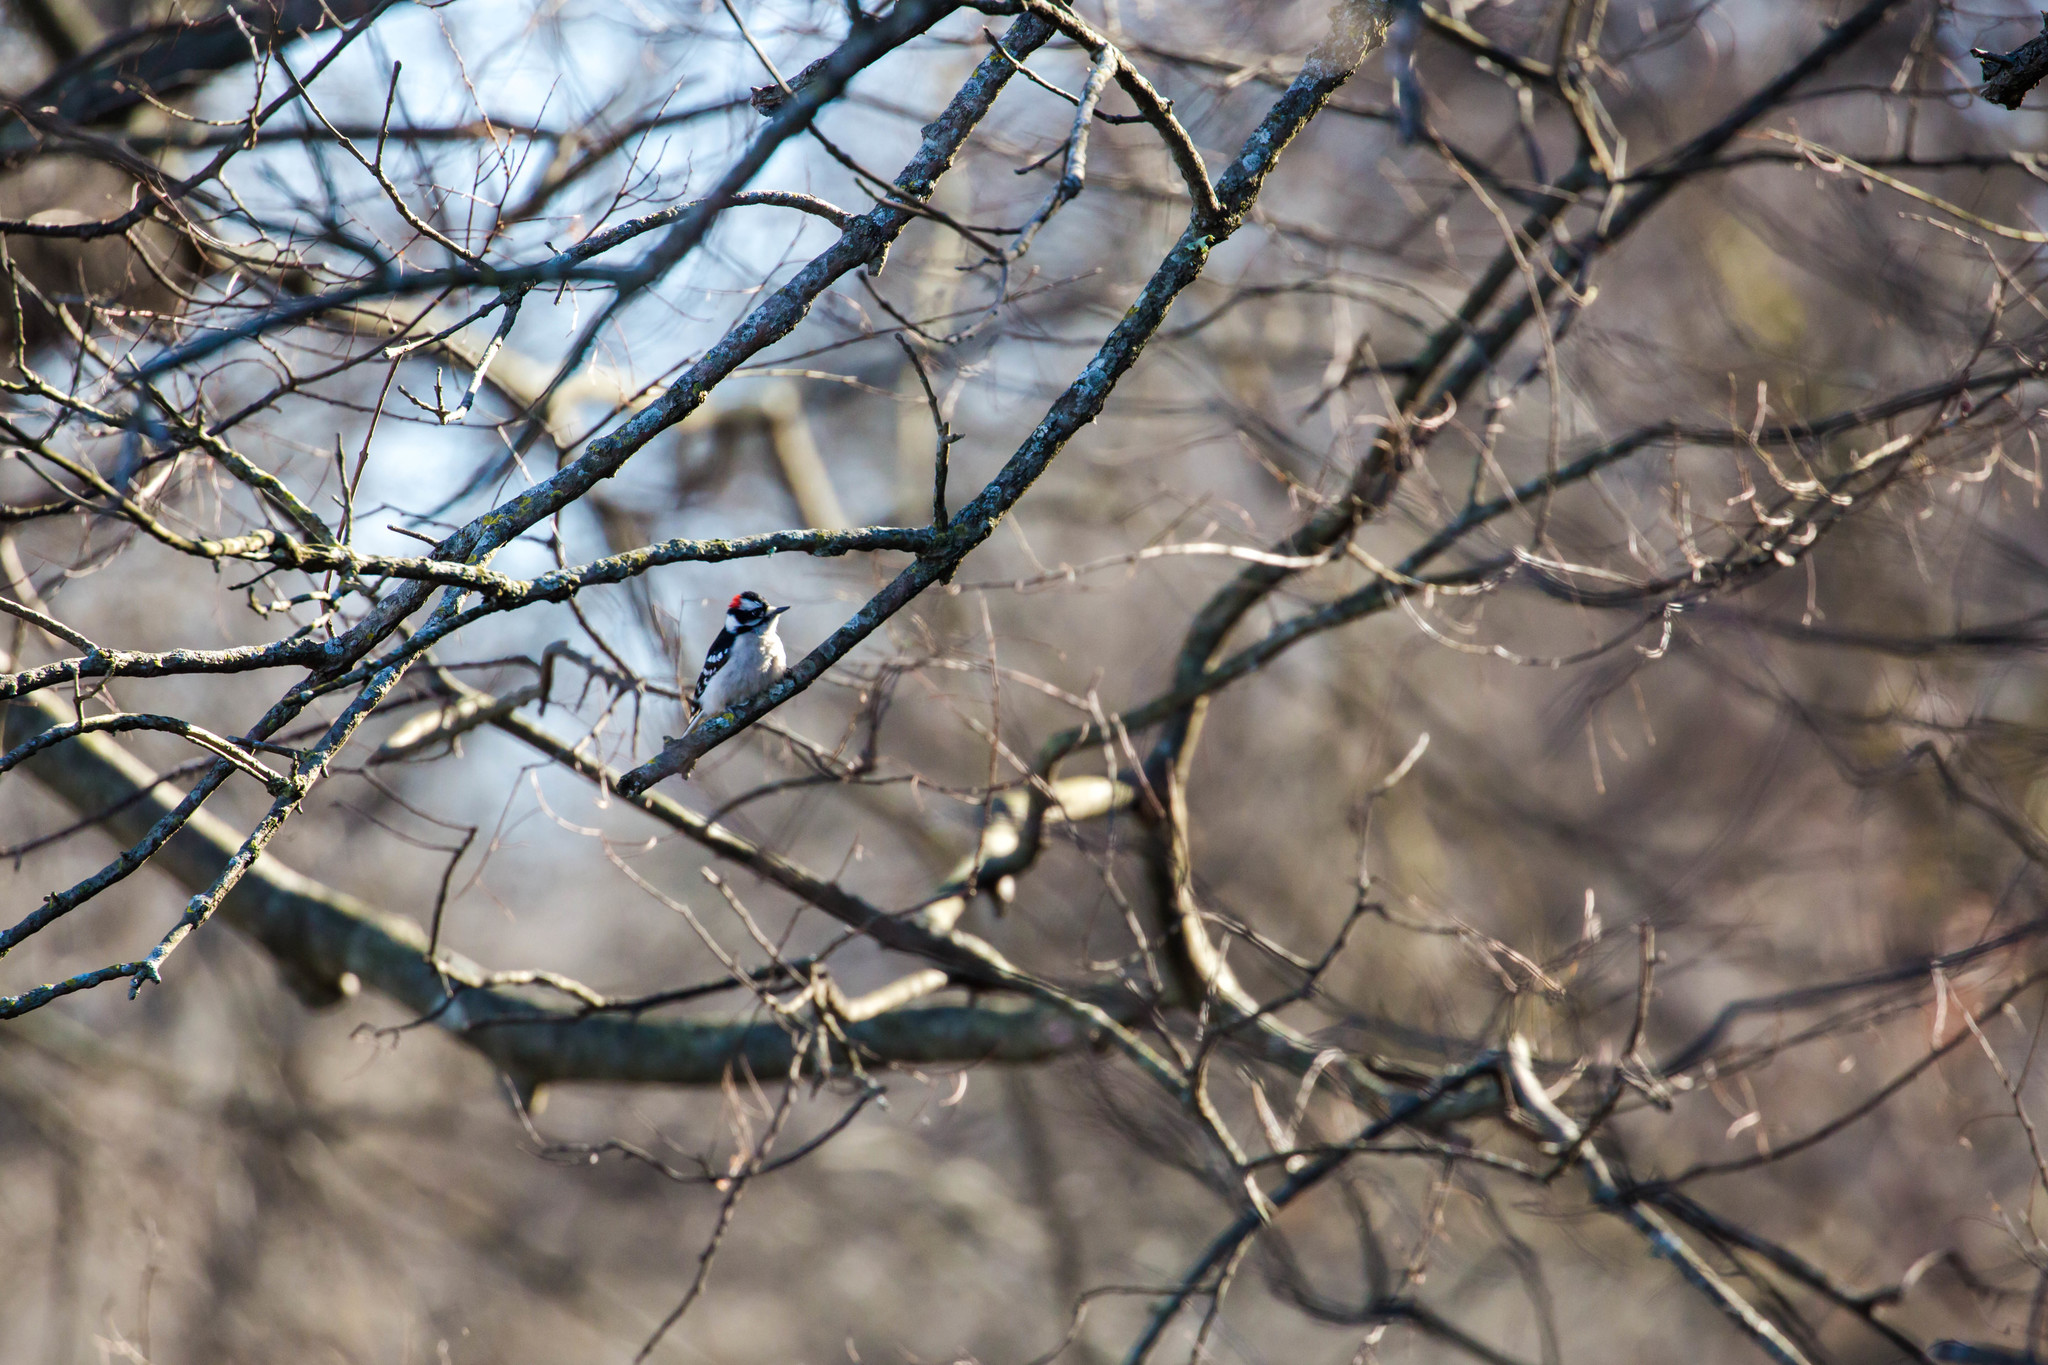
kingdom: Animalia
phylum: Chordata
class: Aves
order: Piciformes
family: Picidae
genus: Dryobates
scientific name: Dryobates pubescens
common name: Downy woodpecker
